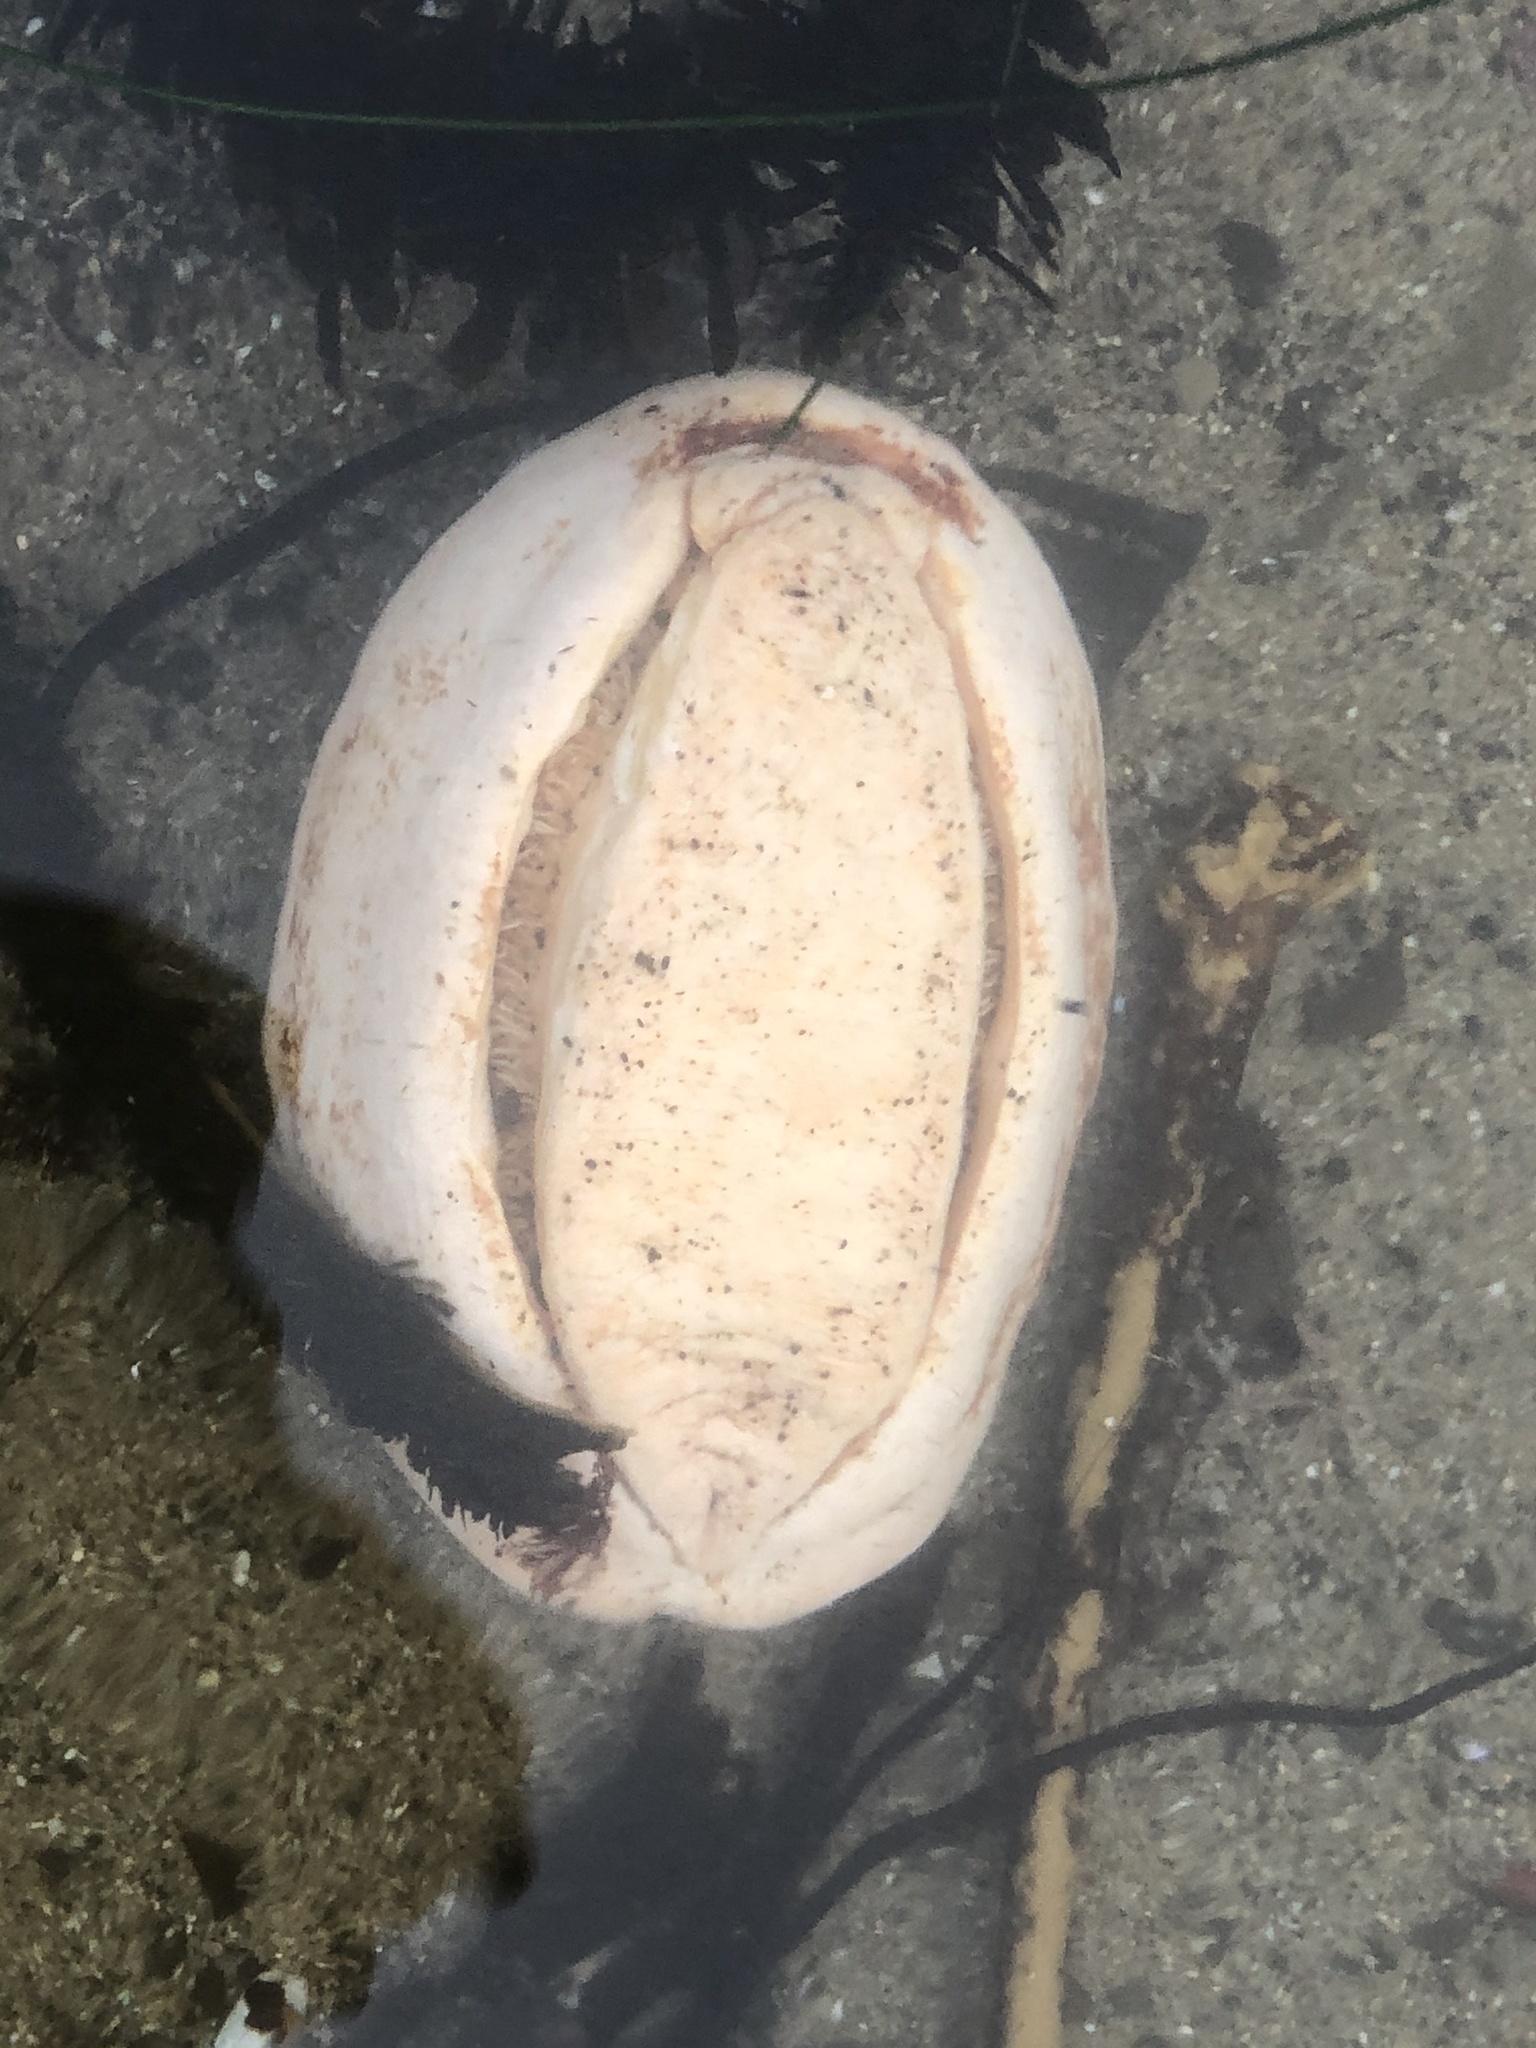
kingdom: Animalia
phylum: Mollusca
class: Polyplacophora
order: Chitonida
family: Acanthochitonidae
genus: Cryptochiton
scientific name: Cryptochiton stelleri
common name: Giant pacific chiton
